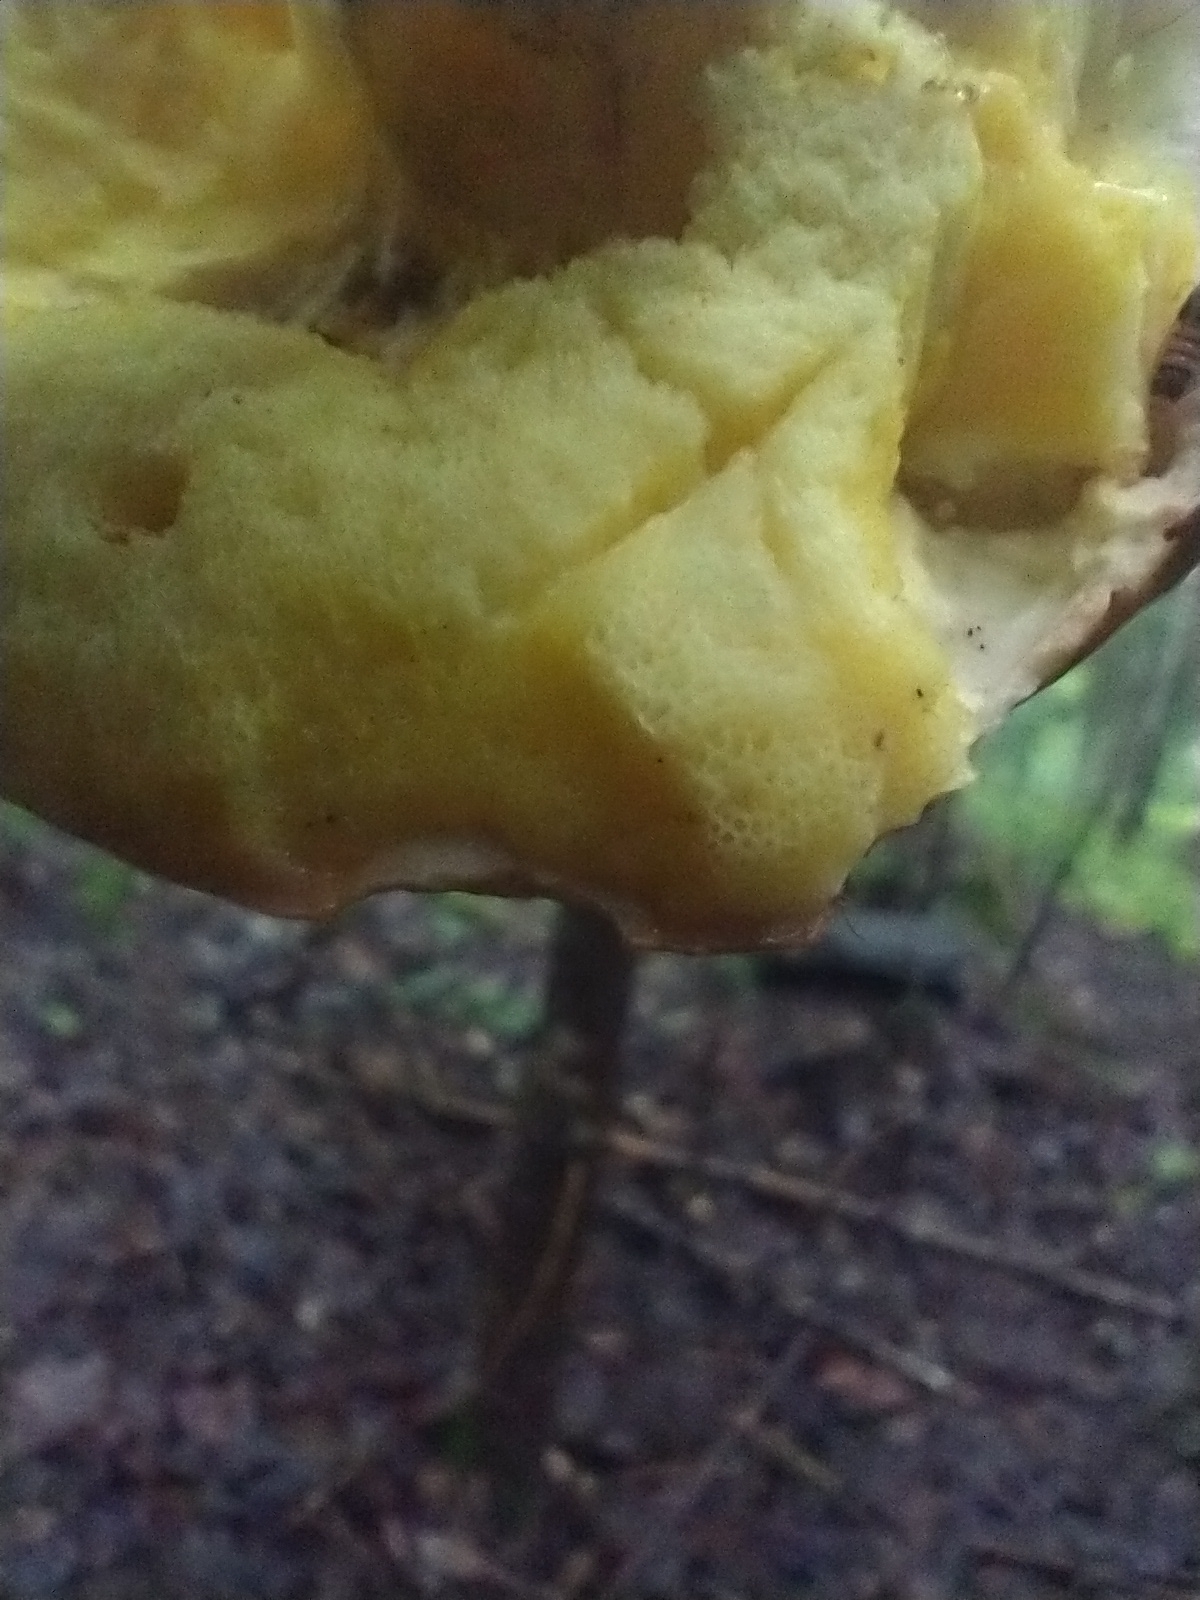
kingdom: Fungi
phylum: Basidiomycota
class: Agaricomycetes
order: Boletales
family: Boletaceae
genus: Hemileccinum
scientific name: Hemileccinum subglabripes
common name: Smoothish-stemmed bolete
